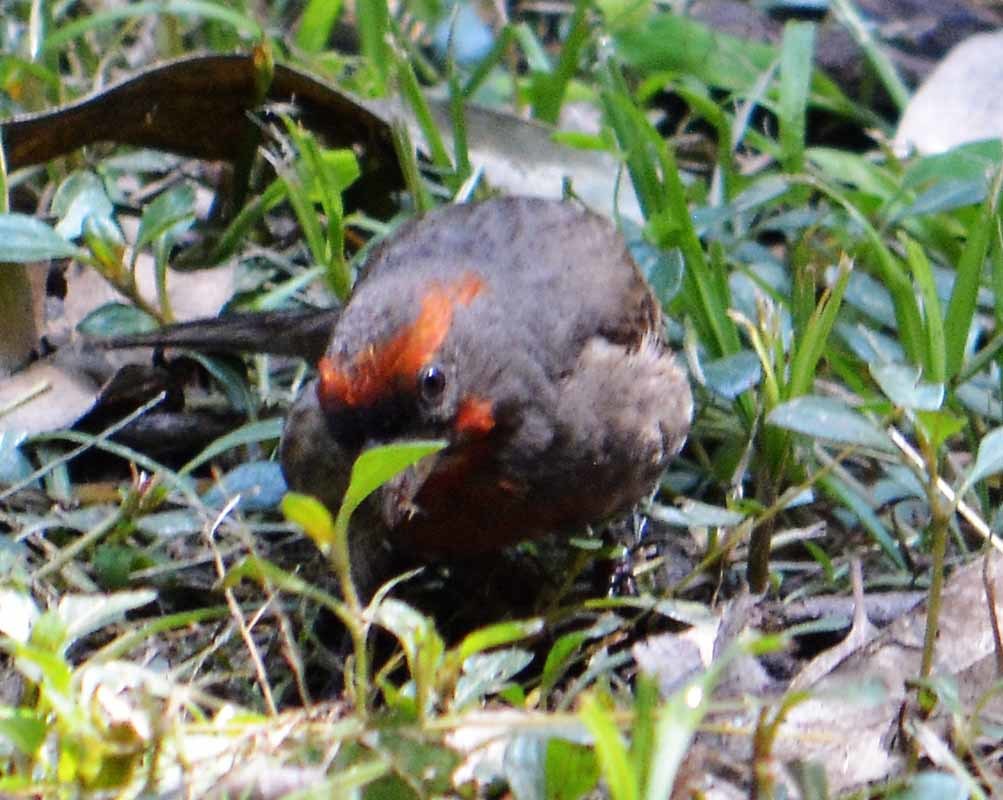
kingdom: Animalia
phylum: Chordata
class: Aves
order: Passeriformes
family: Fringillidae
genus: Haemorhous
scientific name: Haemorhous mexicanus
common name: House finch
